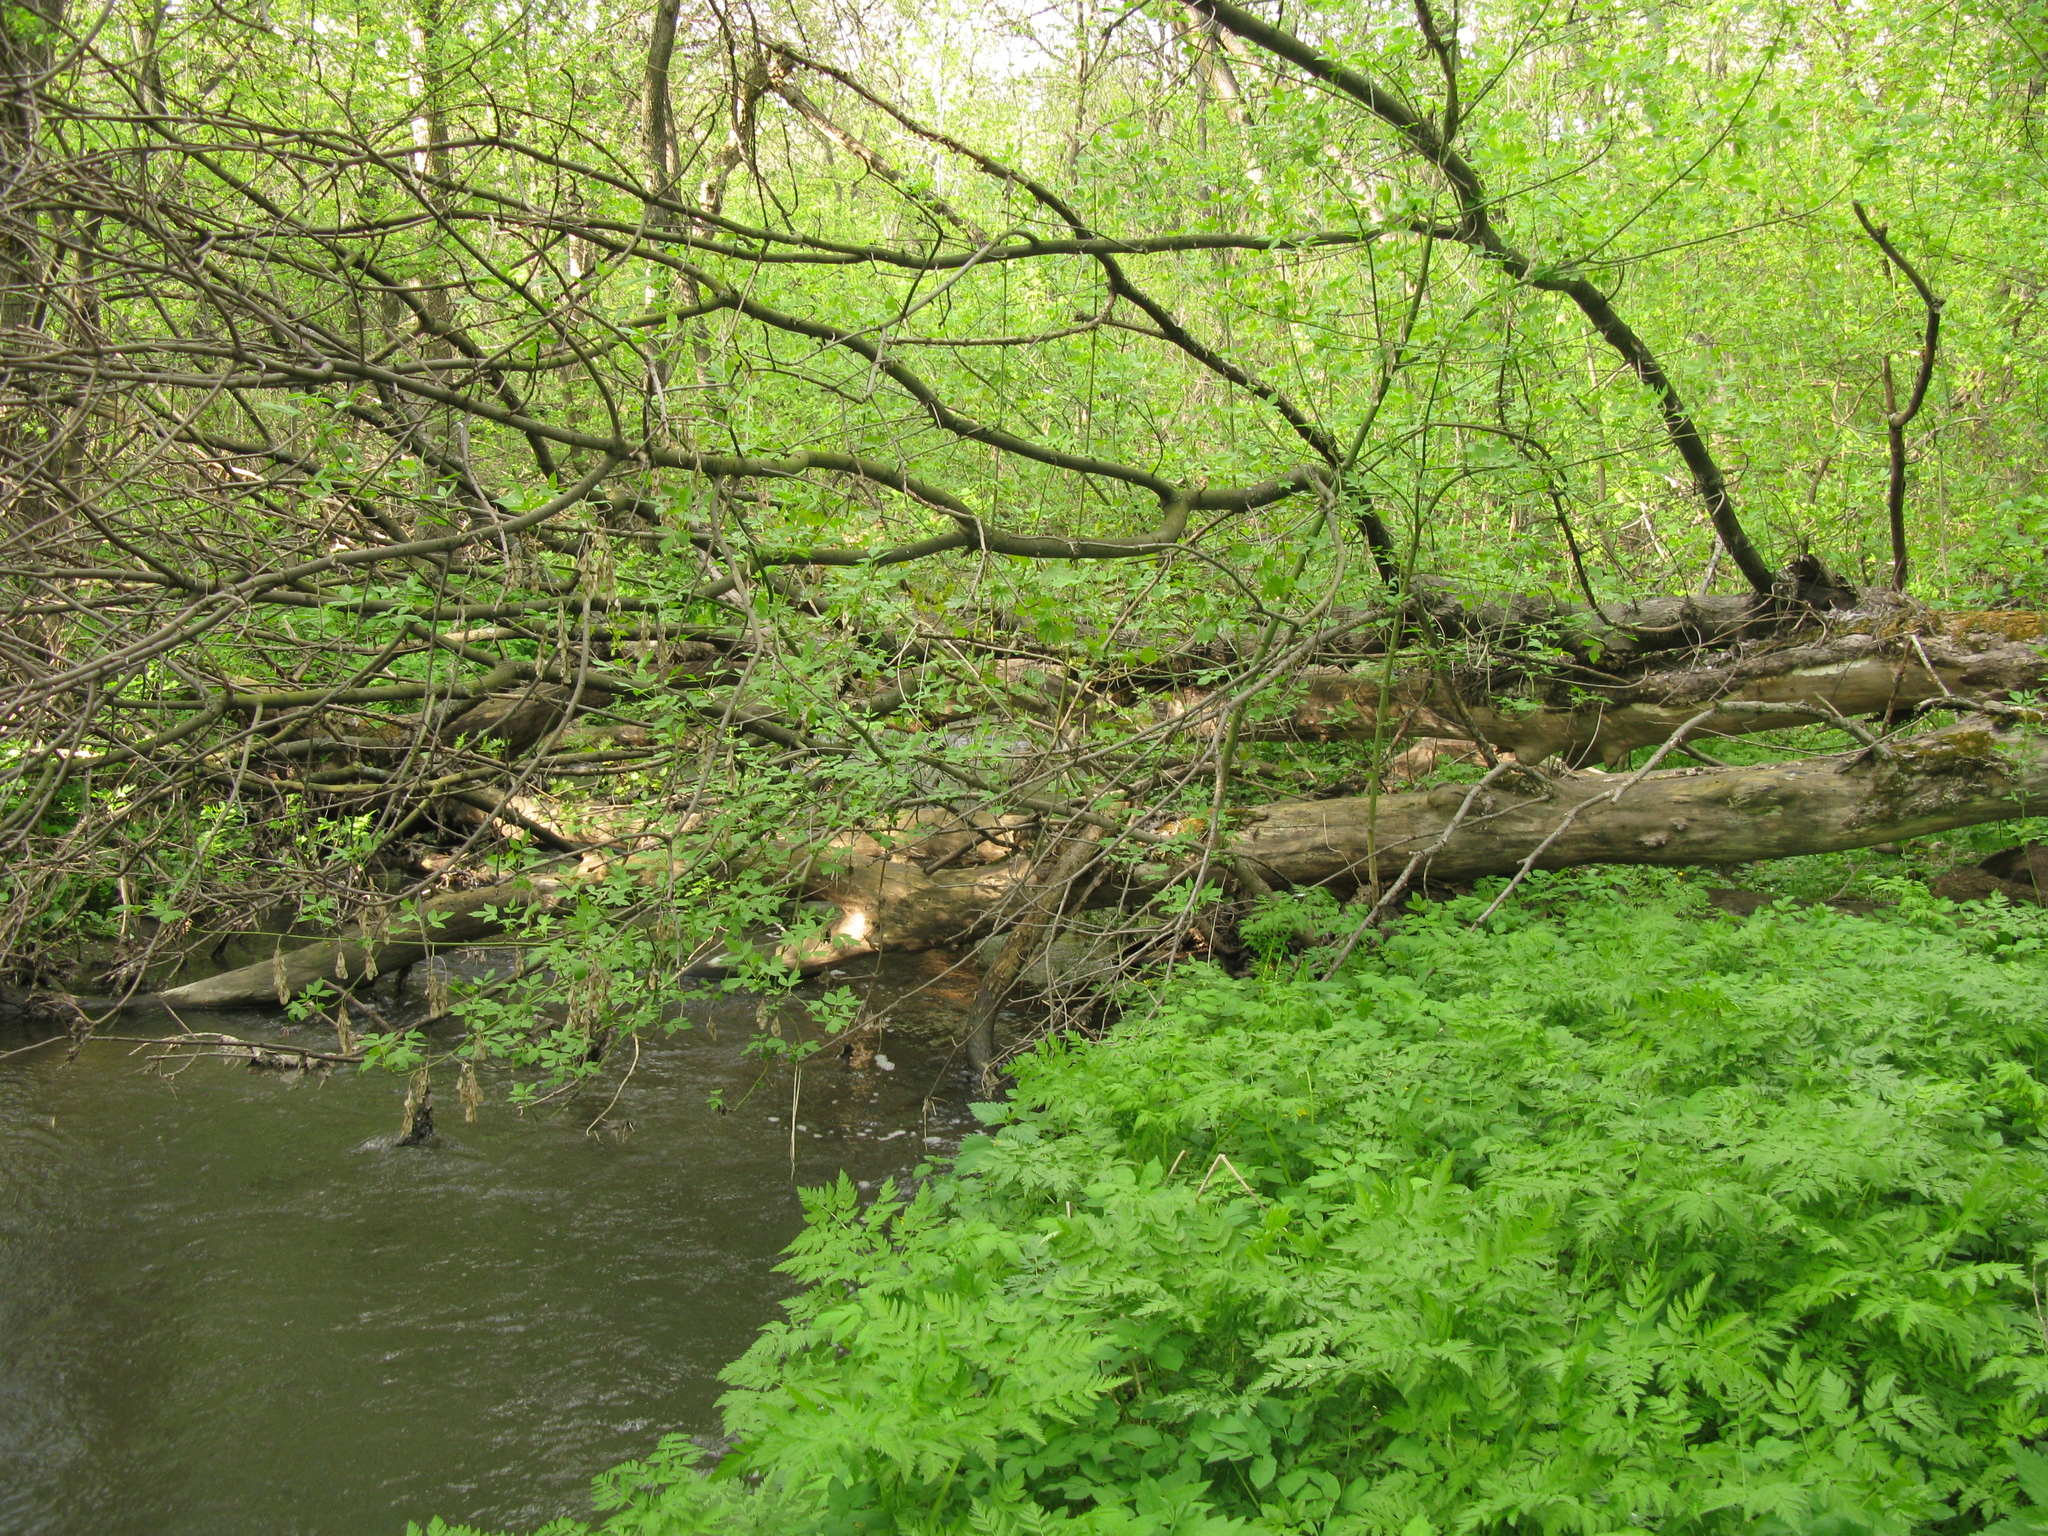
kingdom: Plantae
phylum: Tracheophyta
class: Magnoliopsida
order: Apiales
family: Apiaceae
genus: Anthriscus
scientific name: Anthriscus sylvestris
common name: Cow parsley
